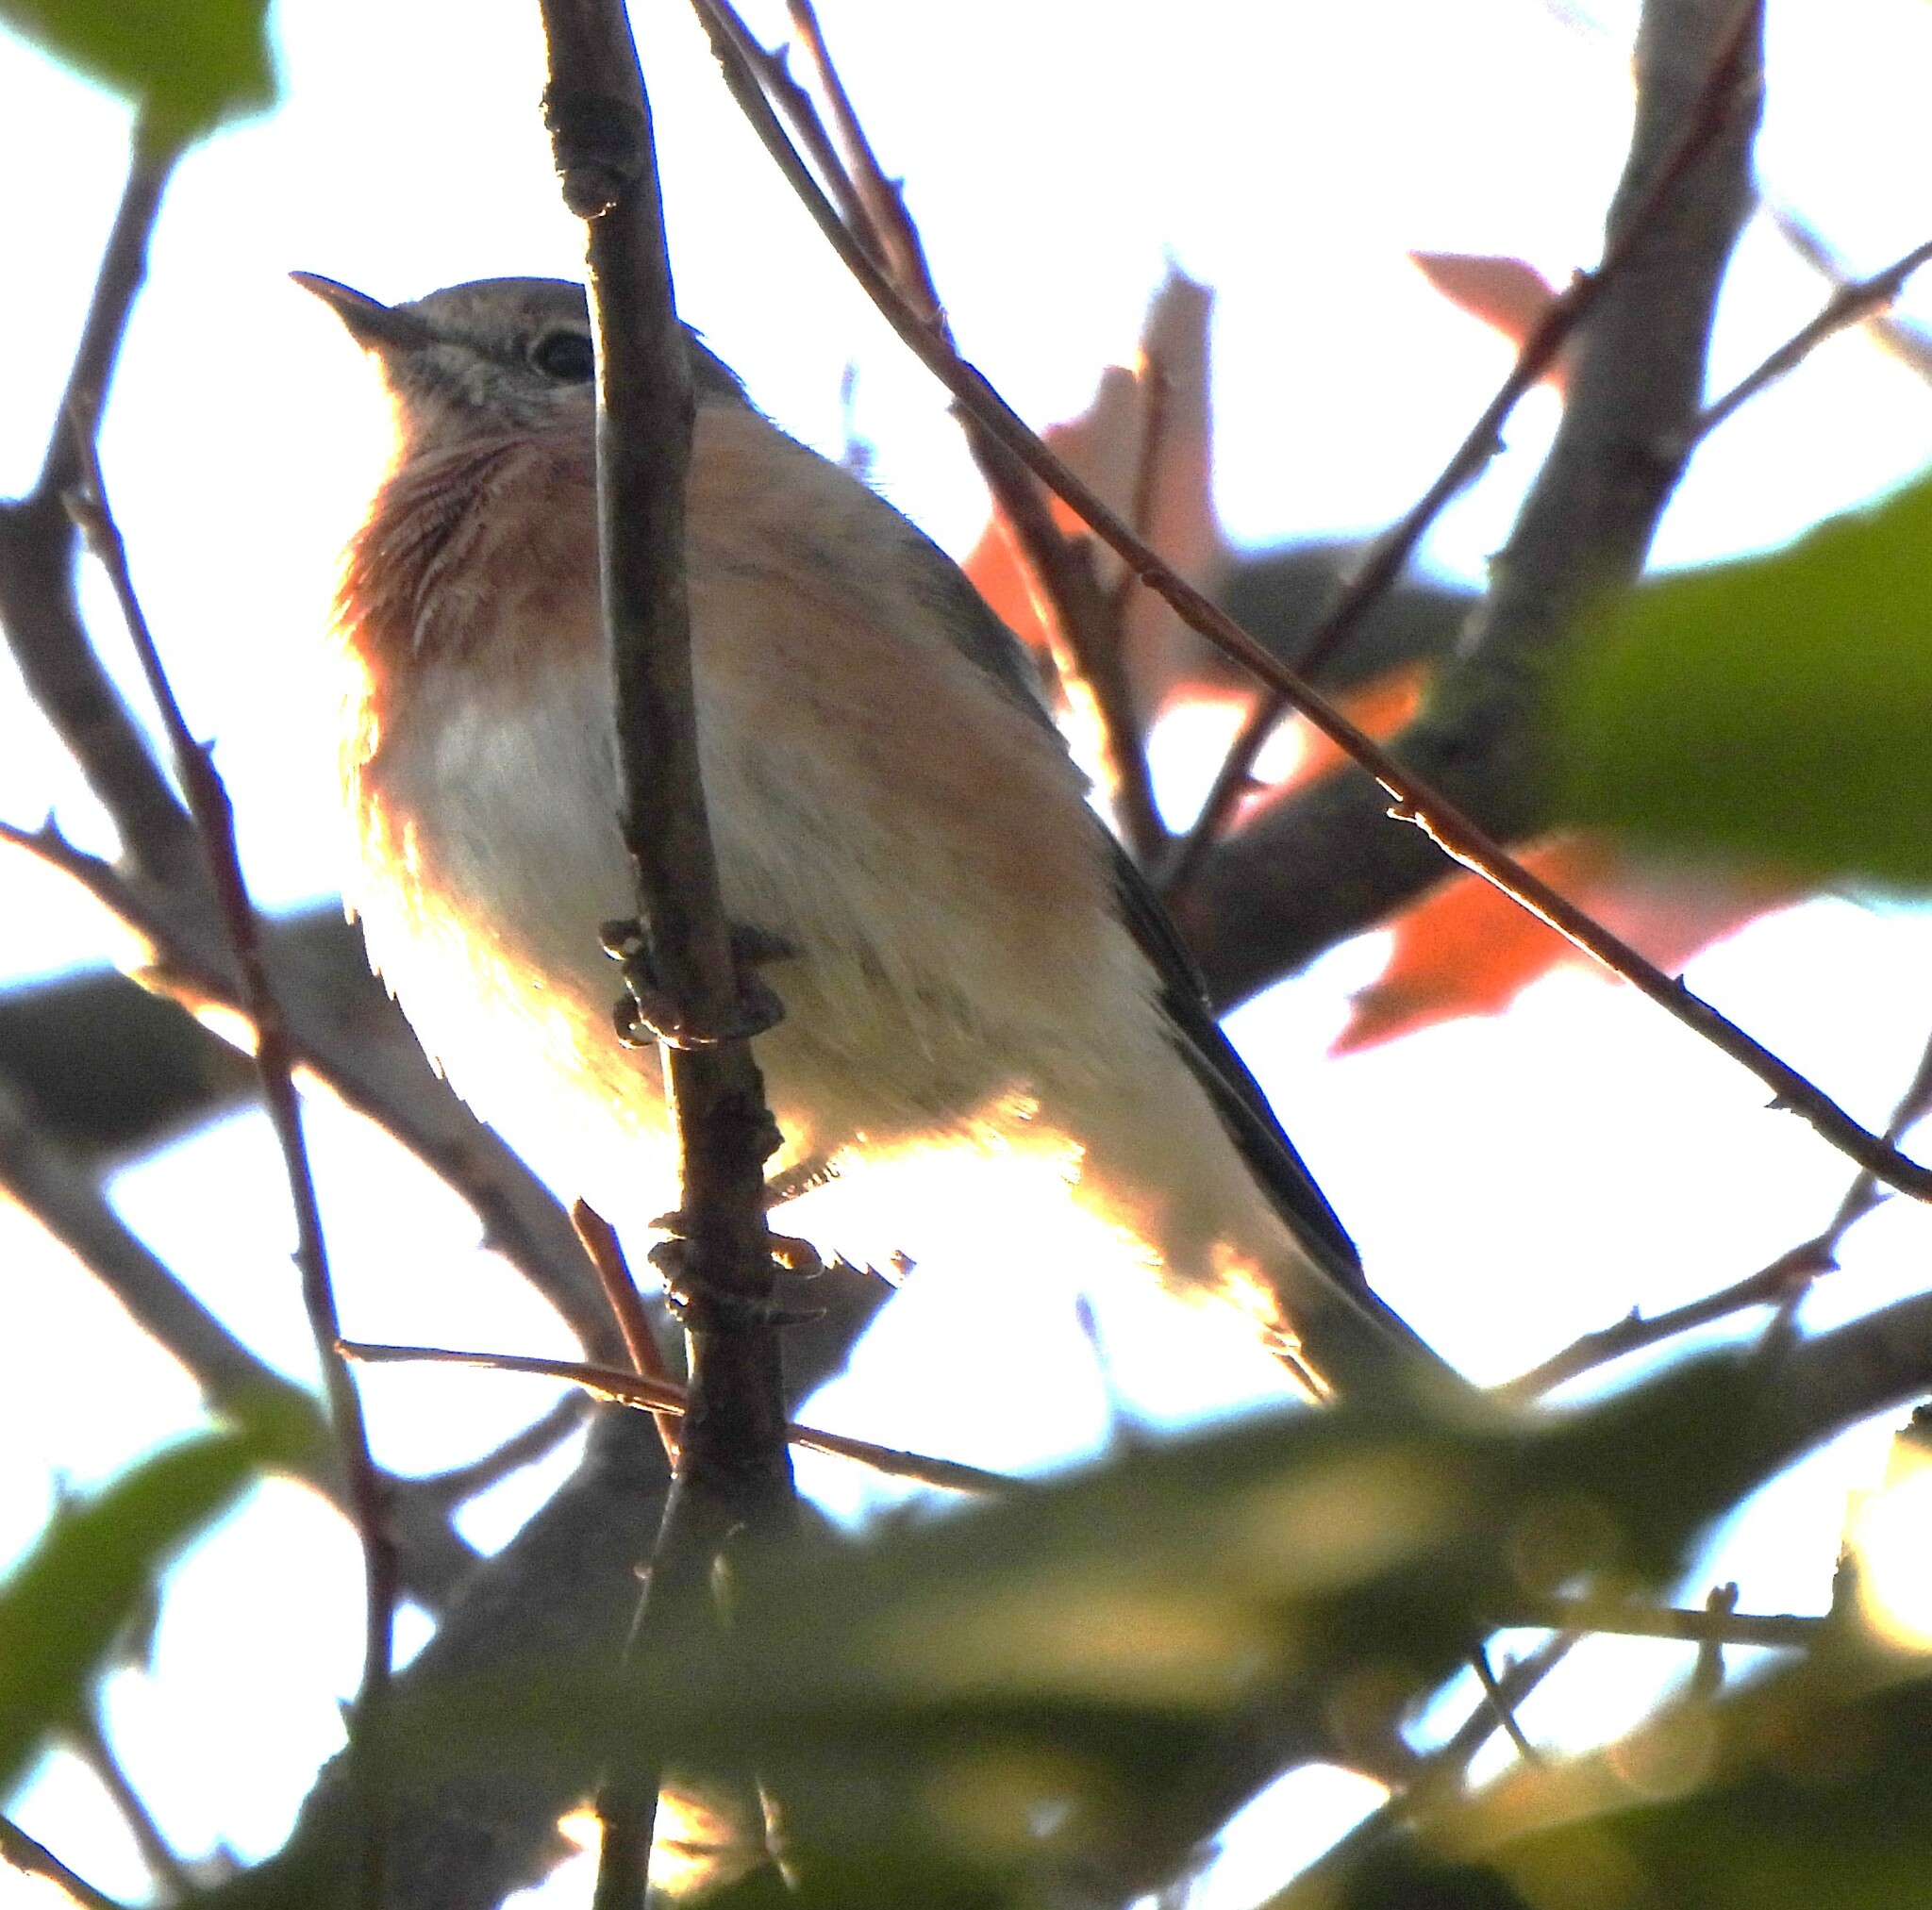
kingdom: Animalia
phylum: Chordata
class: Aves
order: Passeriformes
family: Turdidae
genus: Sialia
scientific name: Sialia sialis
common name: Eastern bluebird
